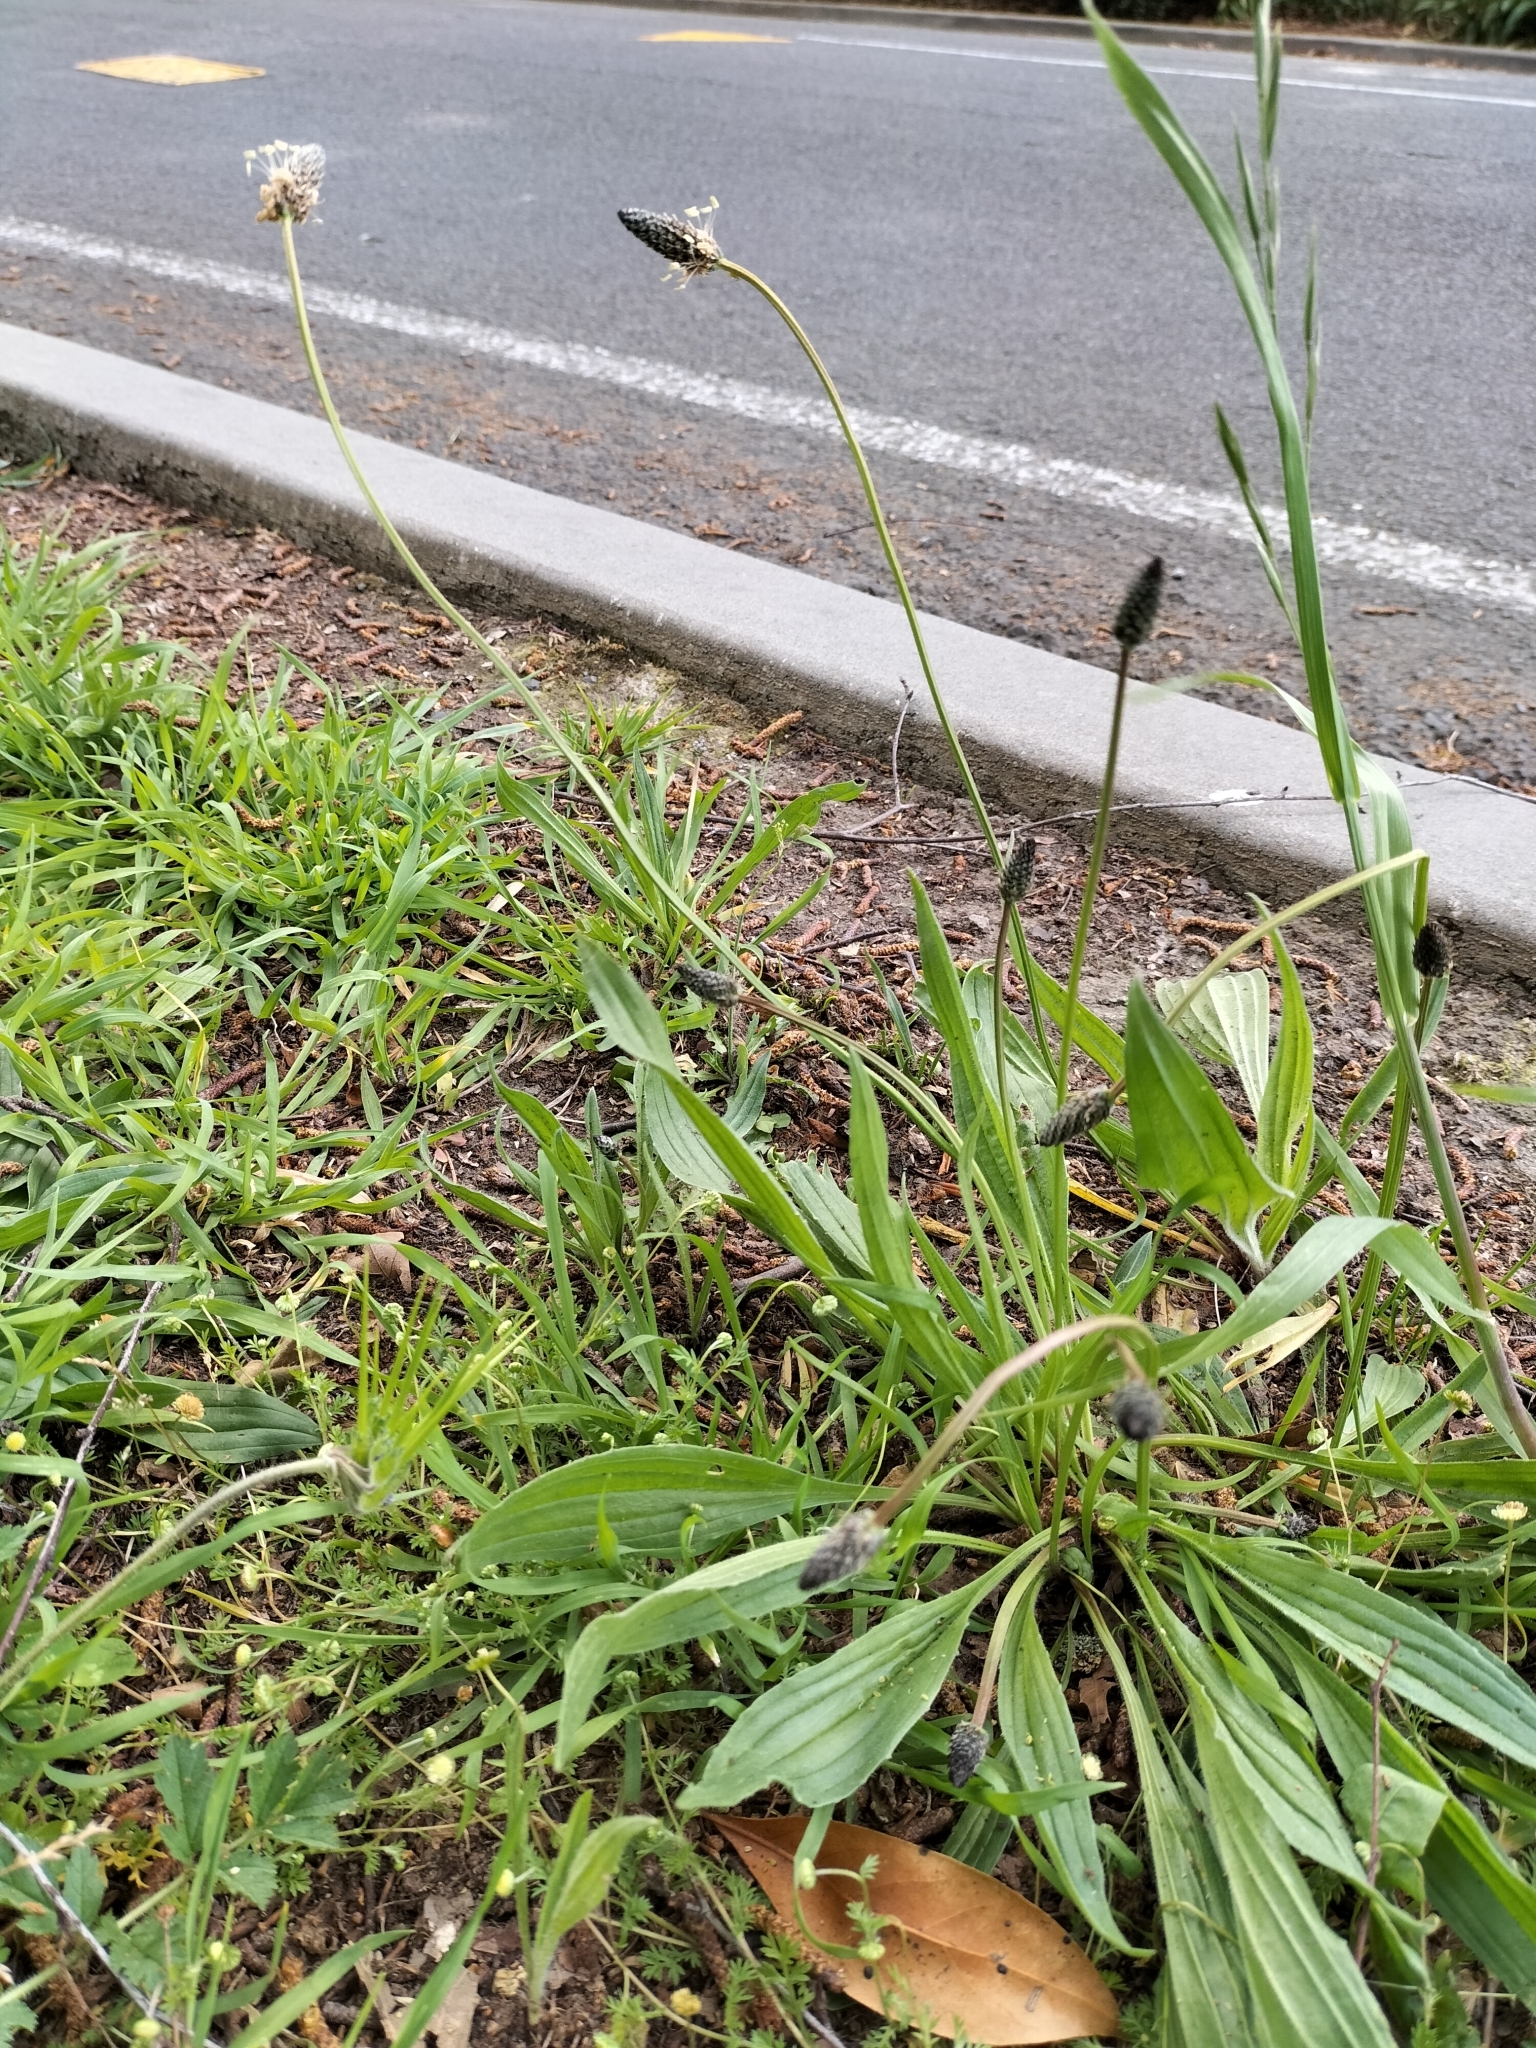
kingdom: Plantae
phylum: Tracheophyta
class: Magnoliopsida
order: Lamiales
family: Plantaginaceae
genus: Plantago
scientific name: Plantago lanceolata
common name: Ribwort plantain
